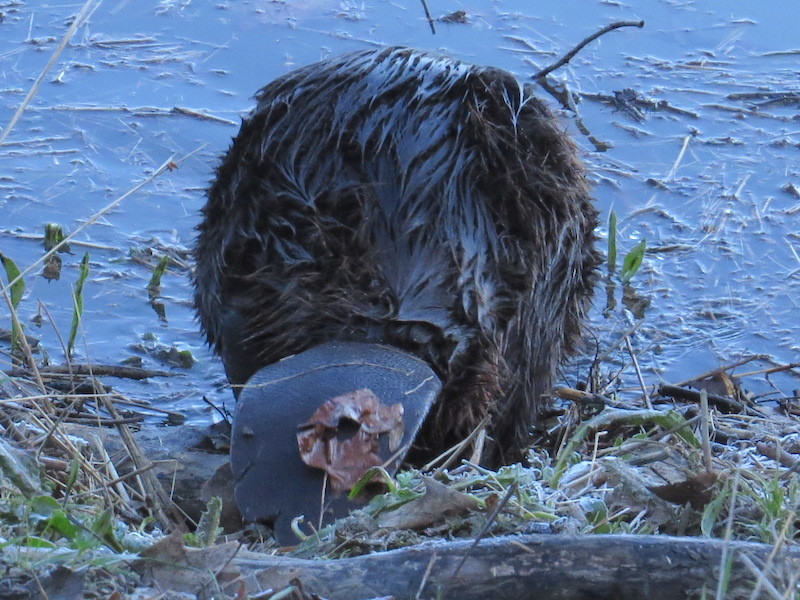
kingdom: Animalia
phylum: Chordata
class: Mammalia
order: Rodentia
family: Castoridae
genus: Castor
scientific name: Castor canadensis
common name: American beaver
